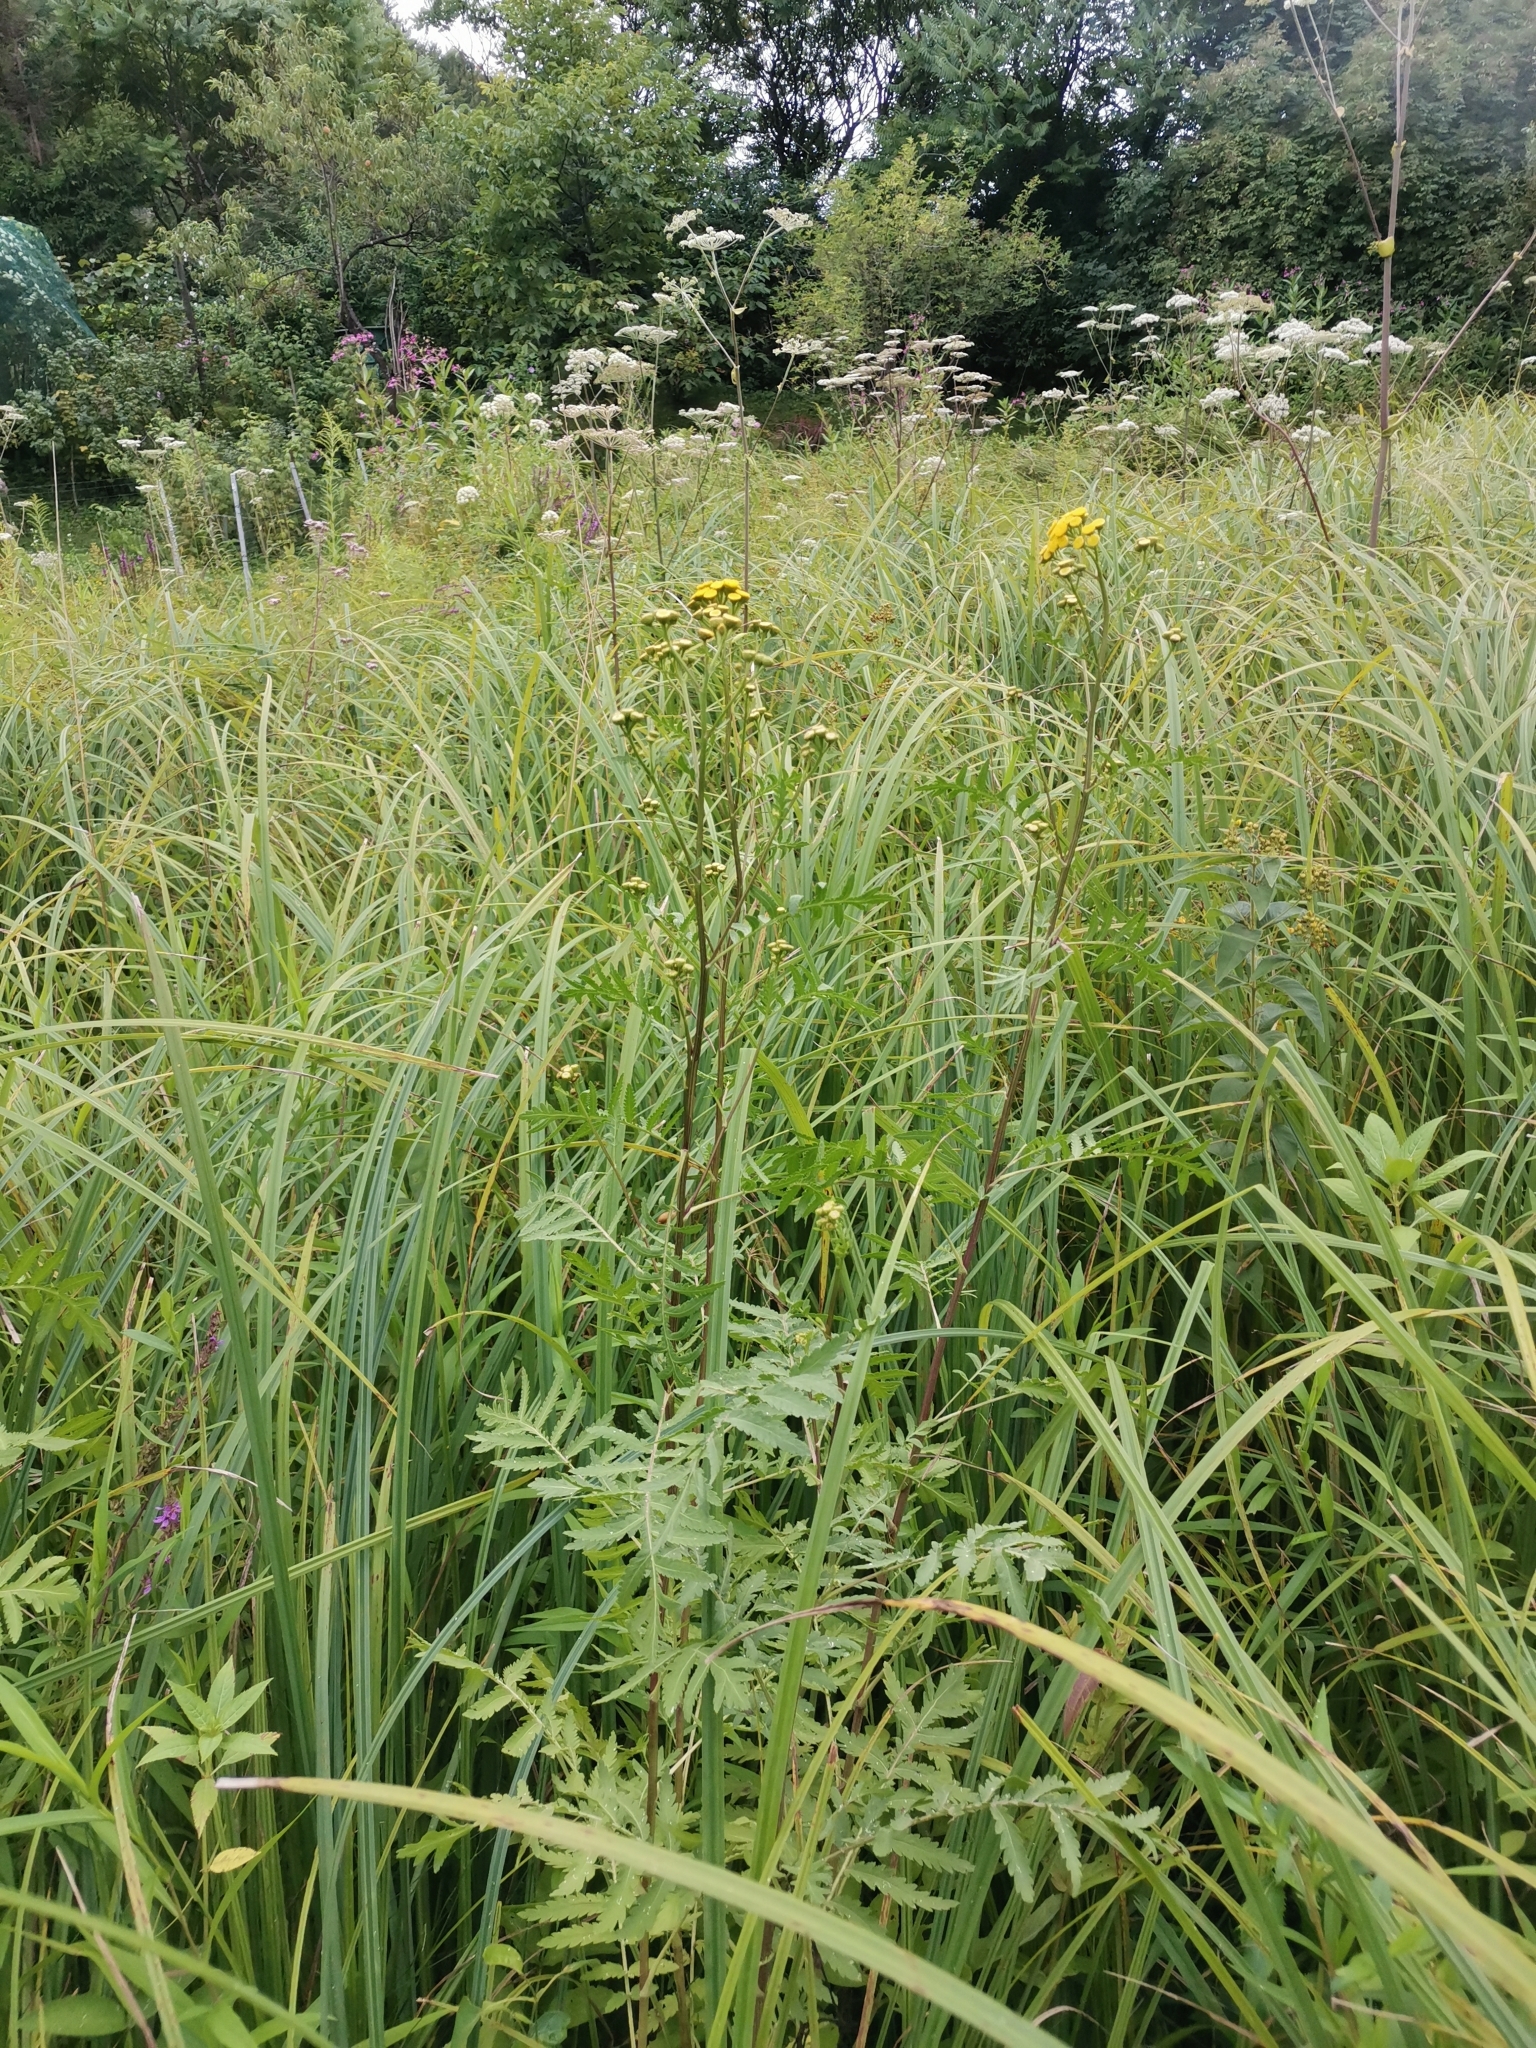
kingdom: Plantae
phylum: Tracheophyta
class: Magnoliopsida
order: Asterales
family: Asteraceae
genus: Tanacetum
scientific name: Tanacetum vulgare
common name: Common tansy
